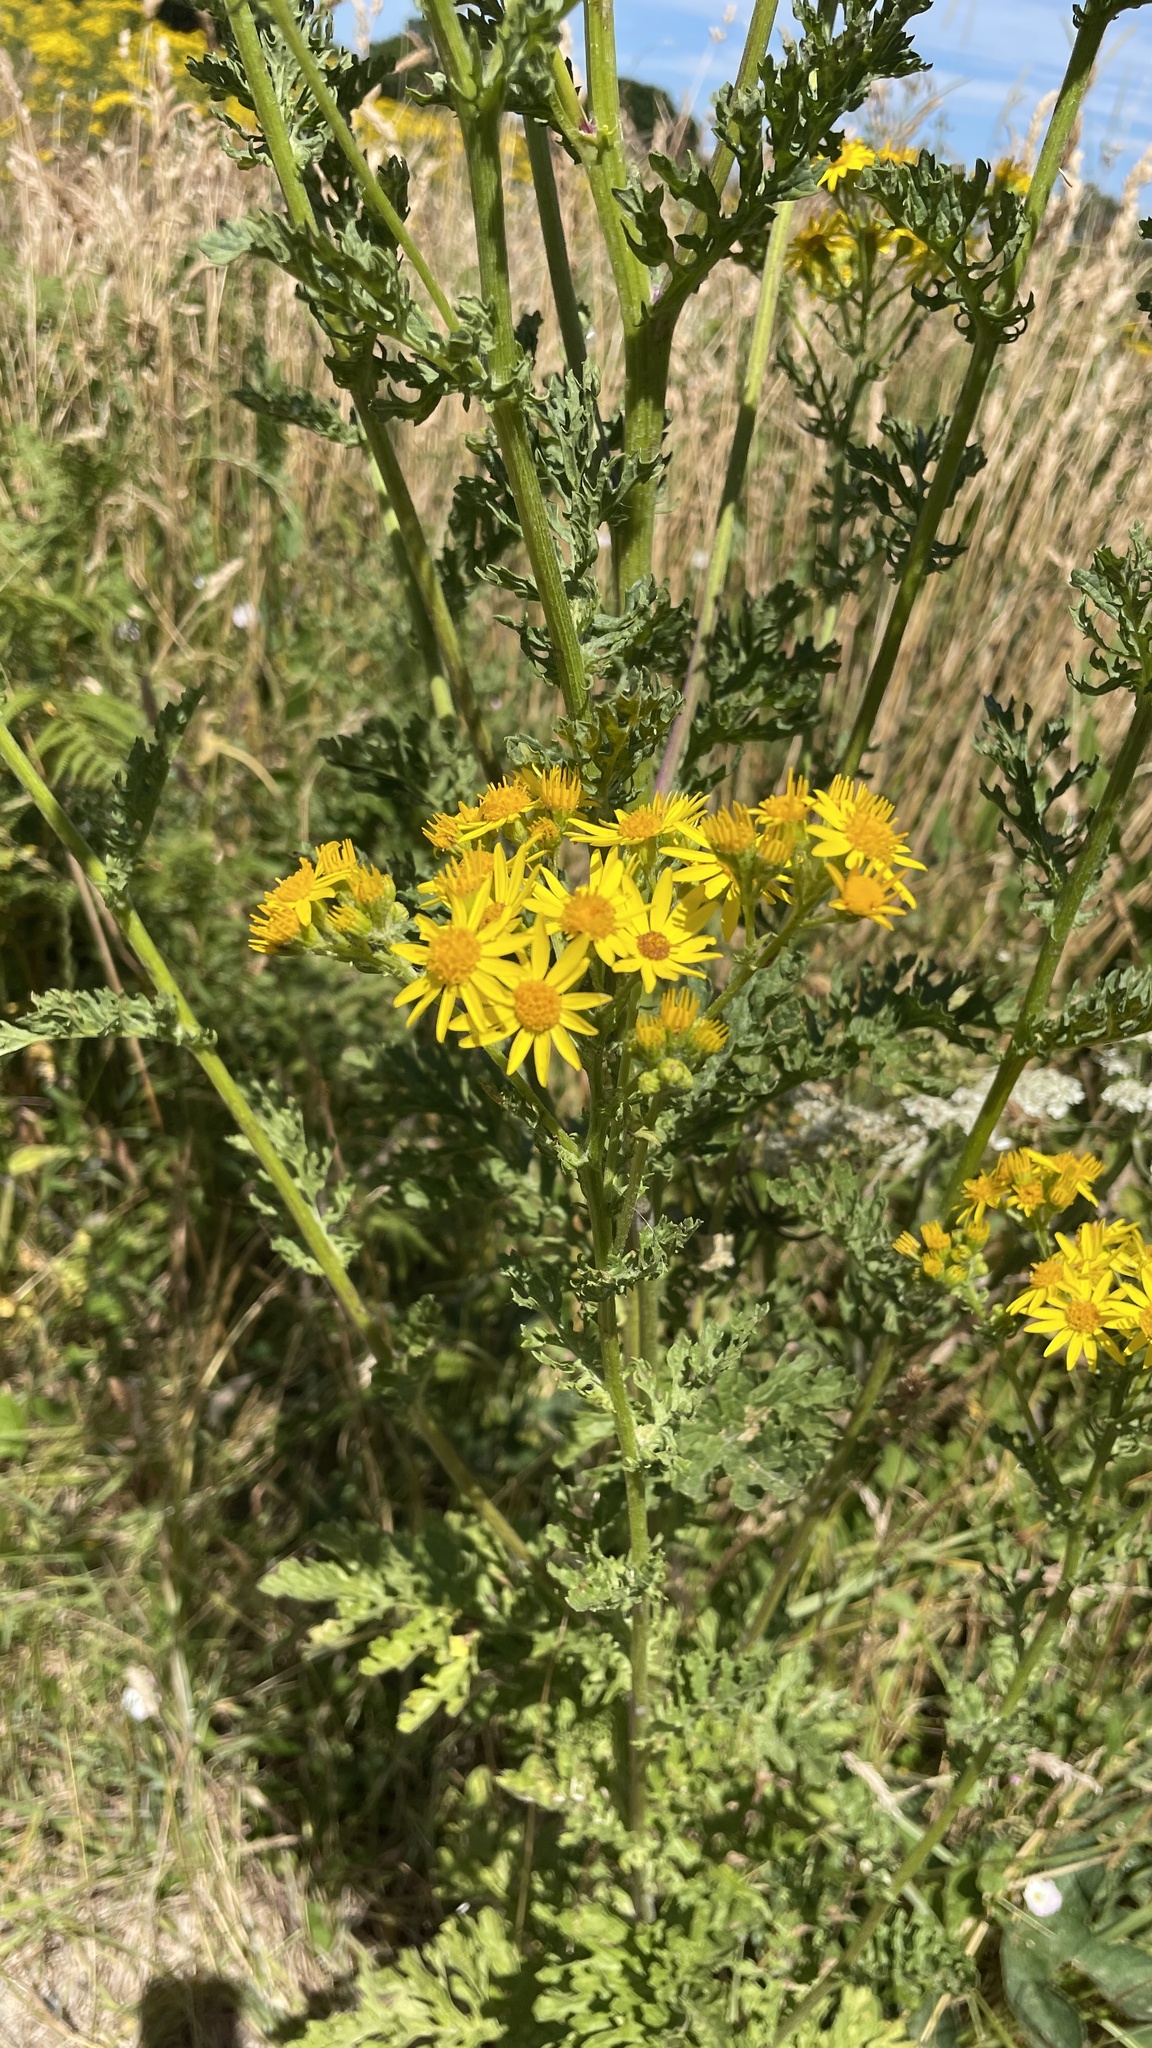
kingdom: Plantae
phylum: Tracheophyta
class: Magnoliopsida
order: Asterales
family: Asteraceae
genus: Jacobaea
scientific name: Jacobaea vulgaris
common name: Stinking willie
